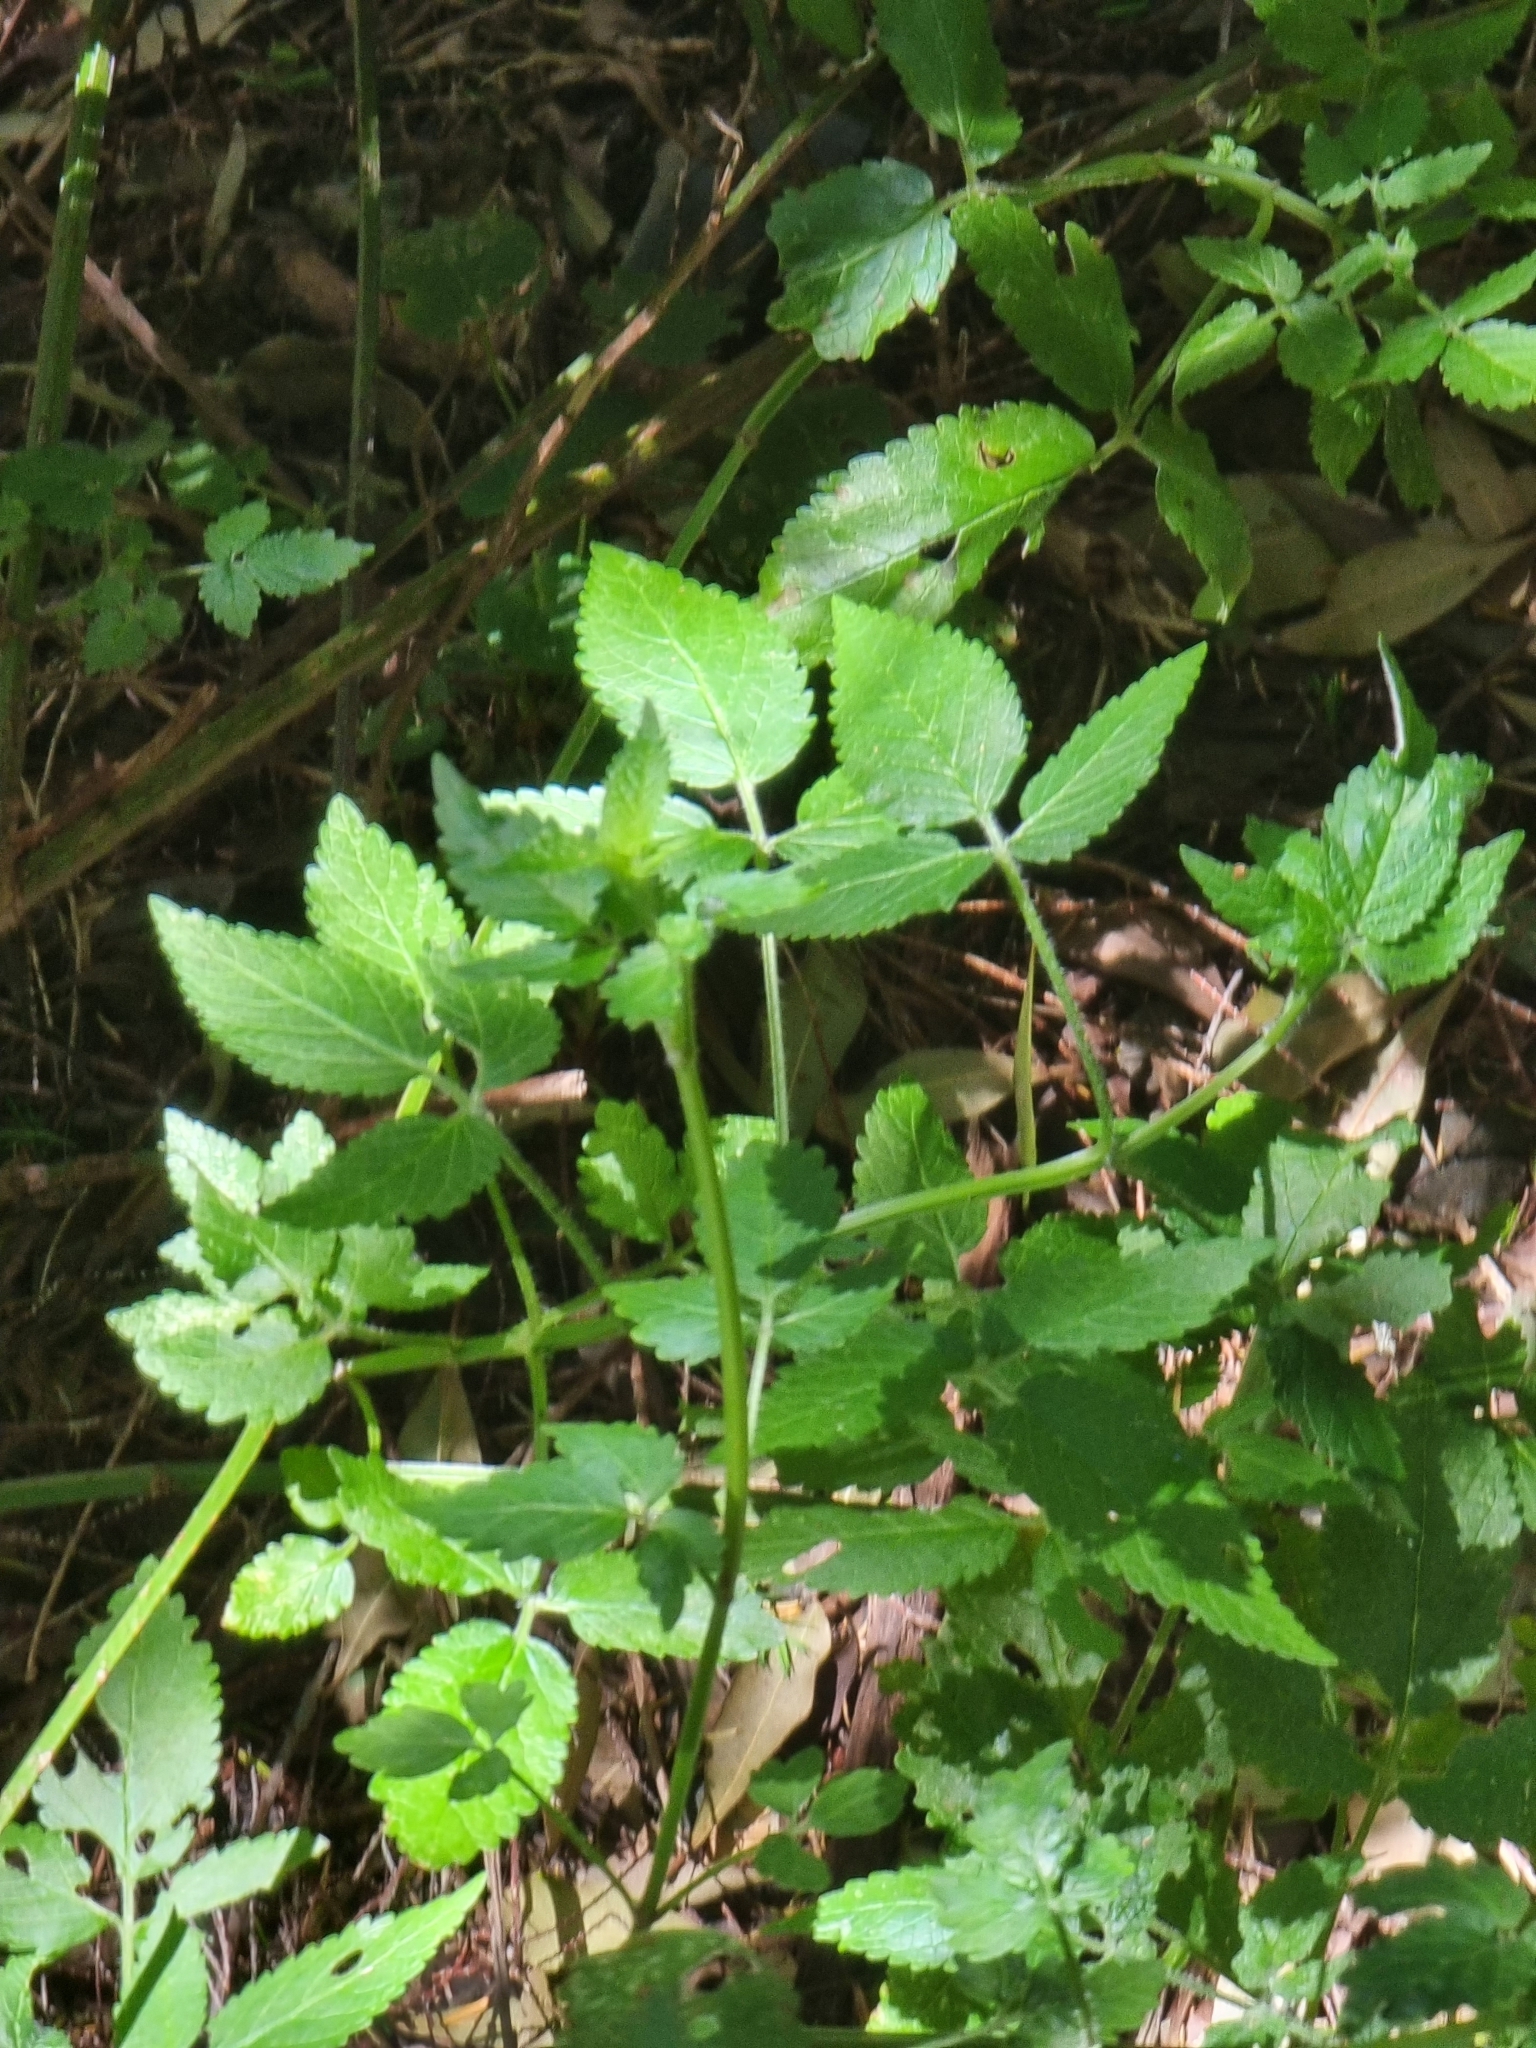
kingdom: Plantae
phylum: Tracheophyta
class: Magnoliopsida
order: Lamiales
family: Lamiaceae
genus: Cedronella
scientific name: Cedronella canariensis
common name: Canary islands balm
